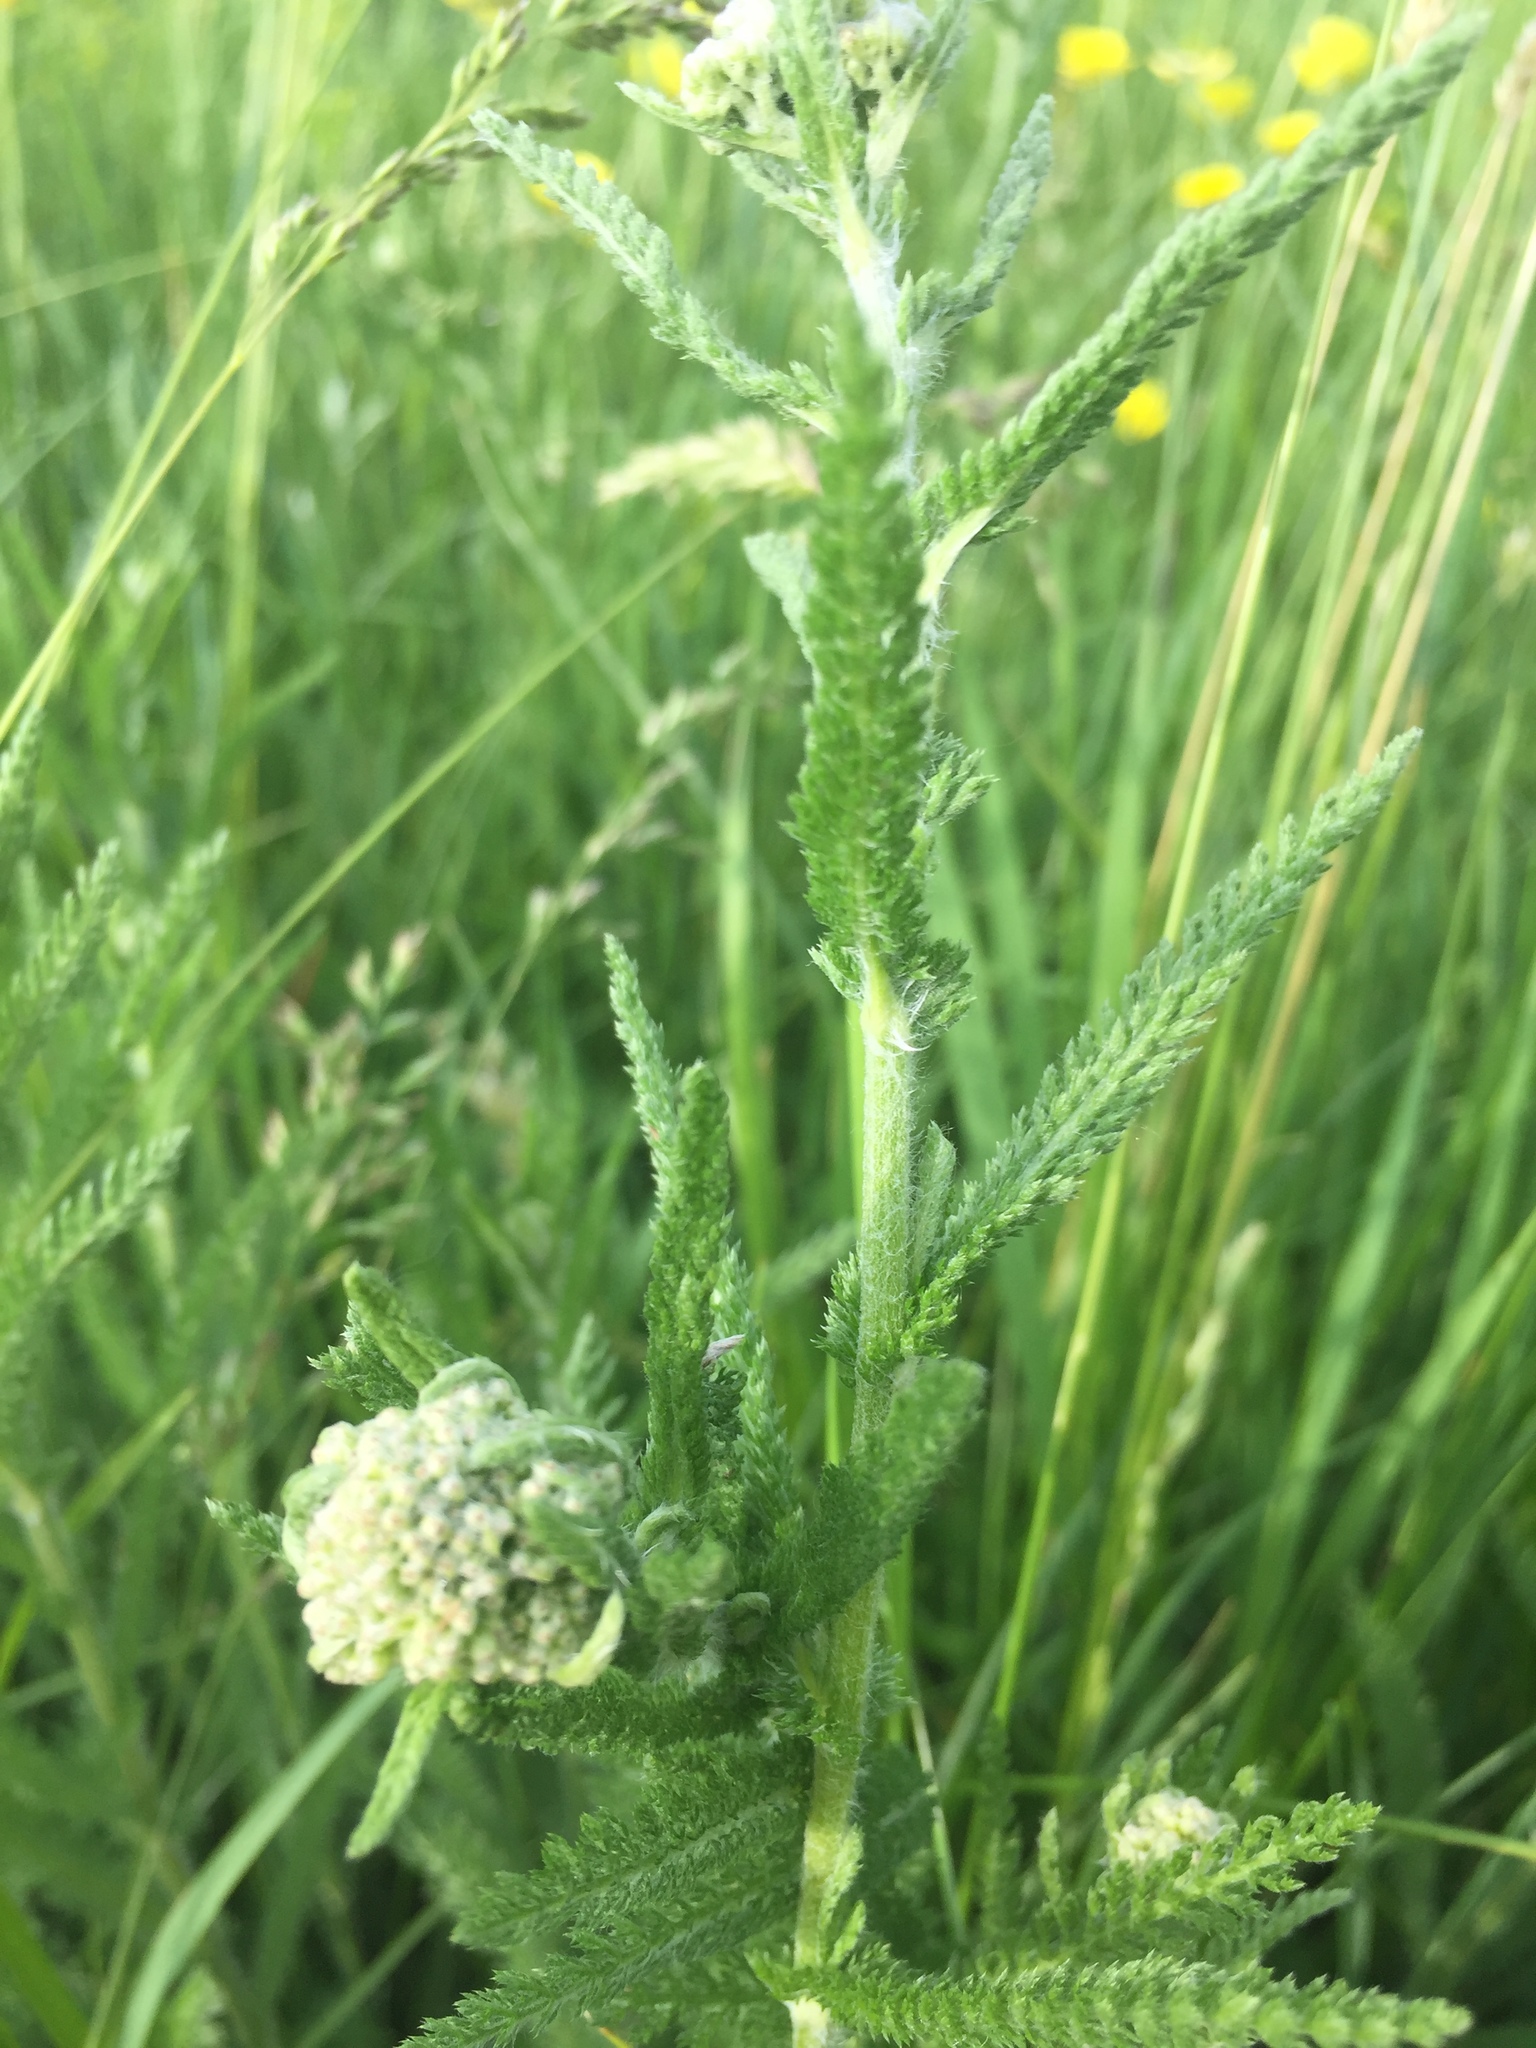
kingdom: Plantae
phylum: Tracheophyta
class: Magnoliopsida
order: Asterales
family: Asteraceae
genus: Achillea
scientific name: Achillea millefolium
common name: Yarrow
